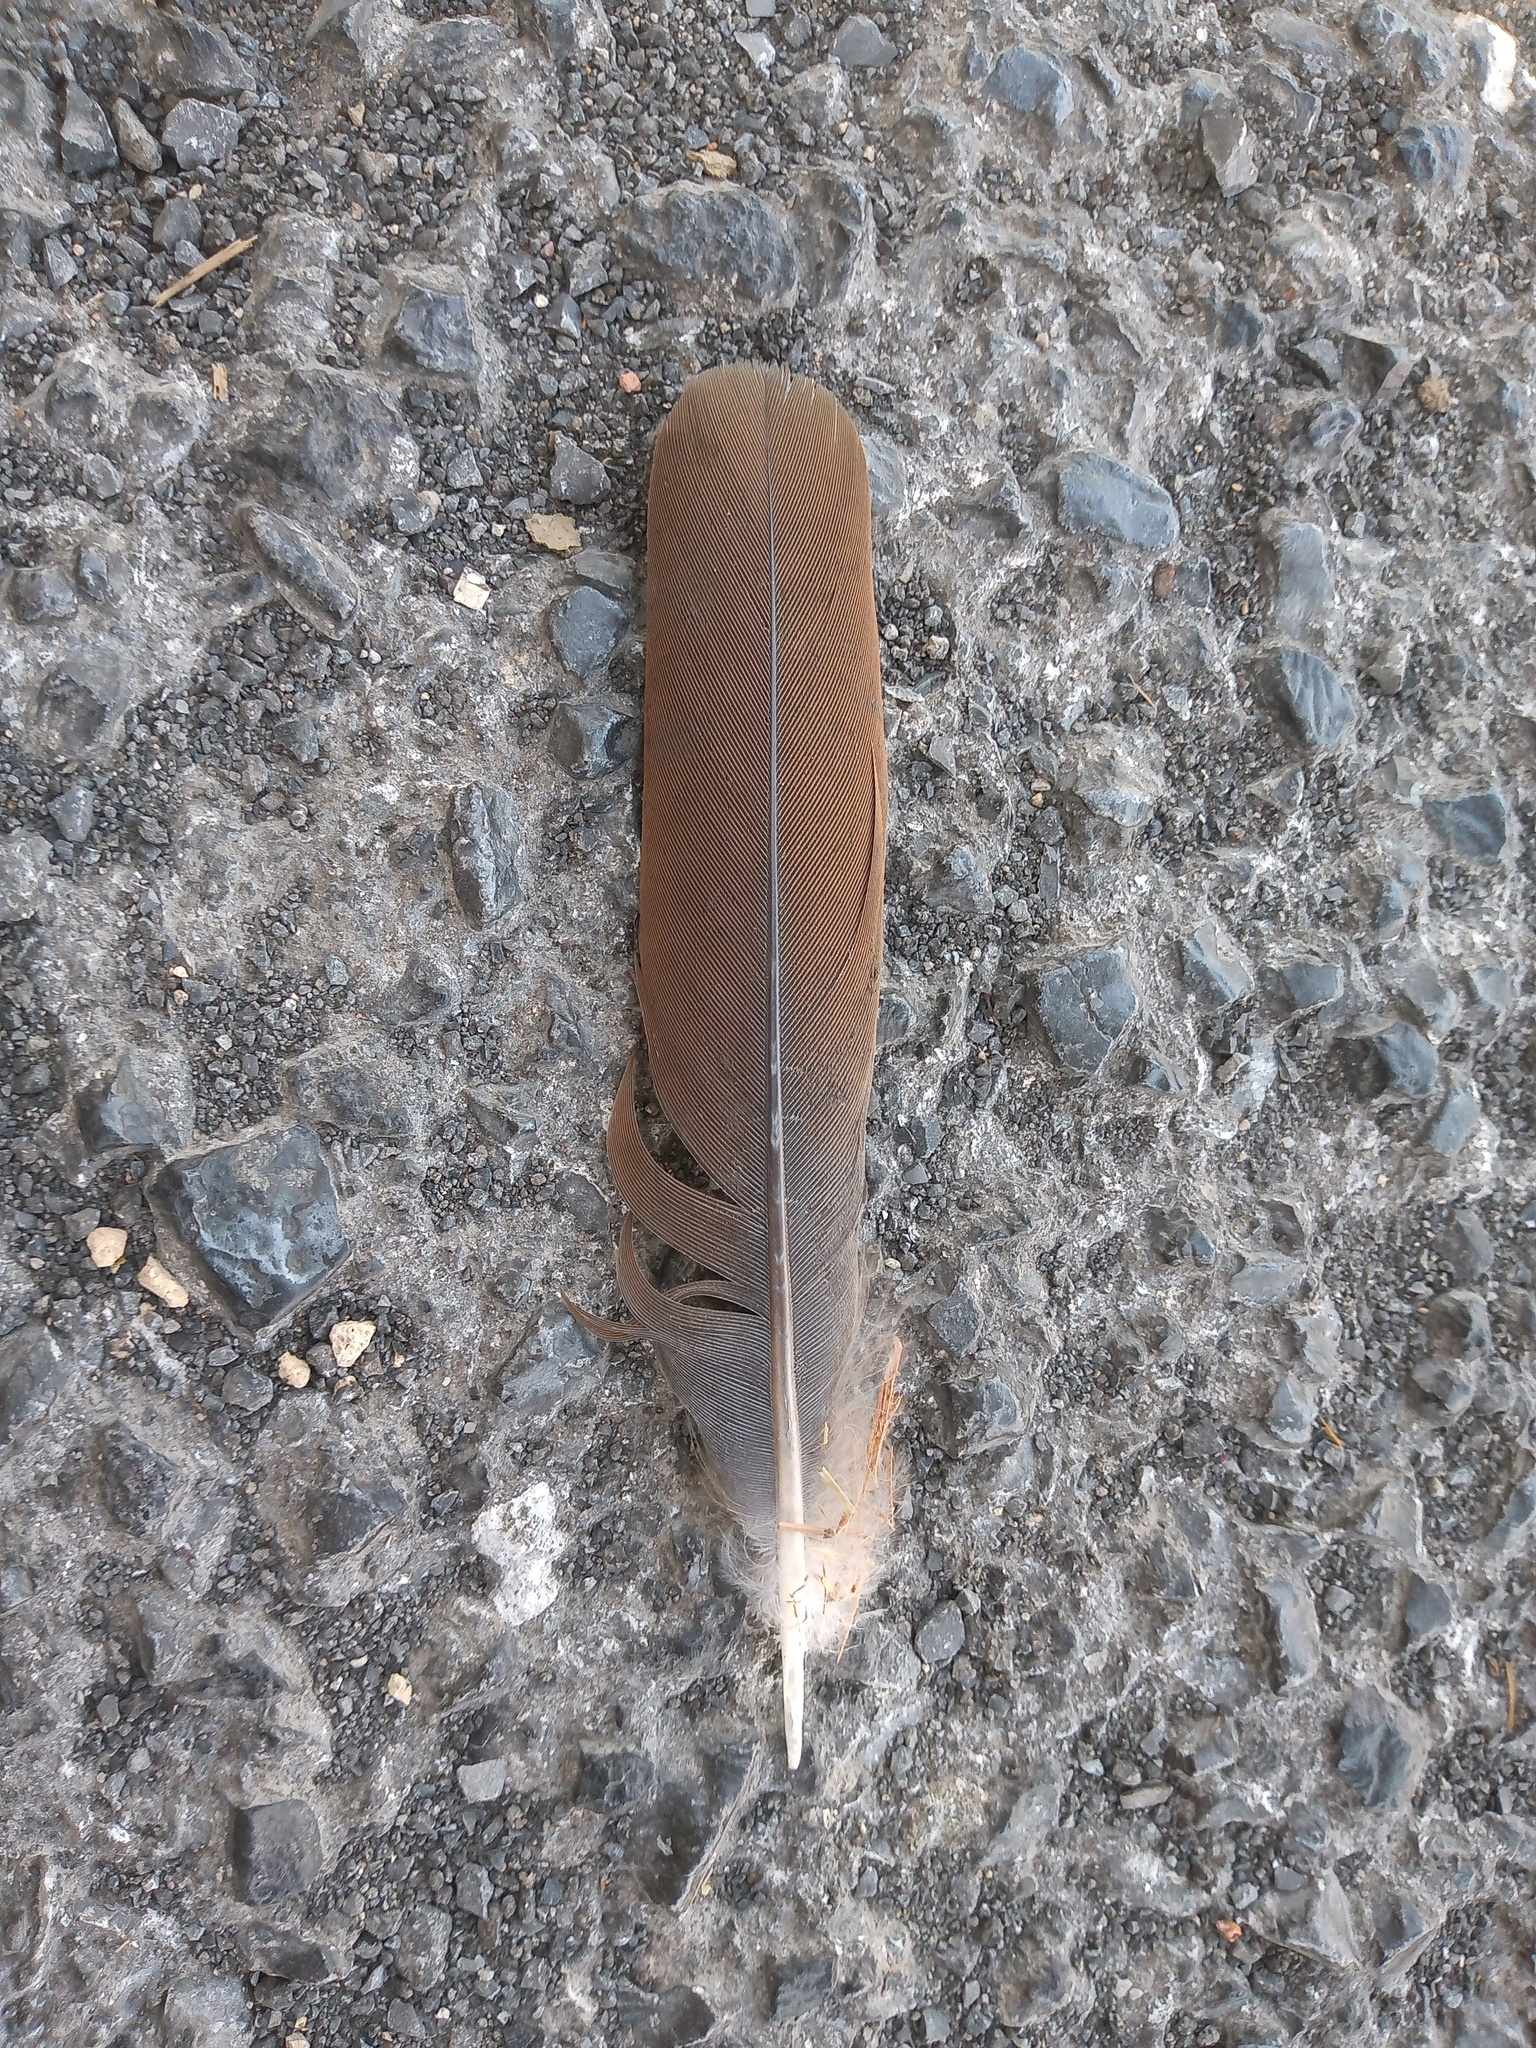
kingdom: Animalia
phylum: Chordata
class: Aves
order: Columbiformes
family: Columbidae
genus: Zenaida
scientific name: Zenaida asiatica
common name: White-winged dove
